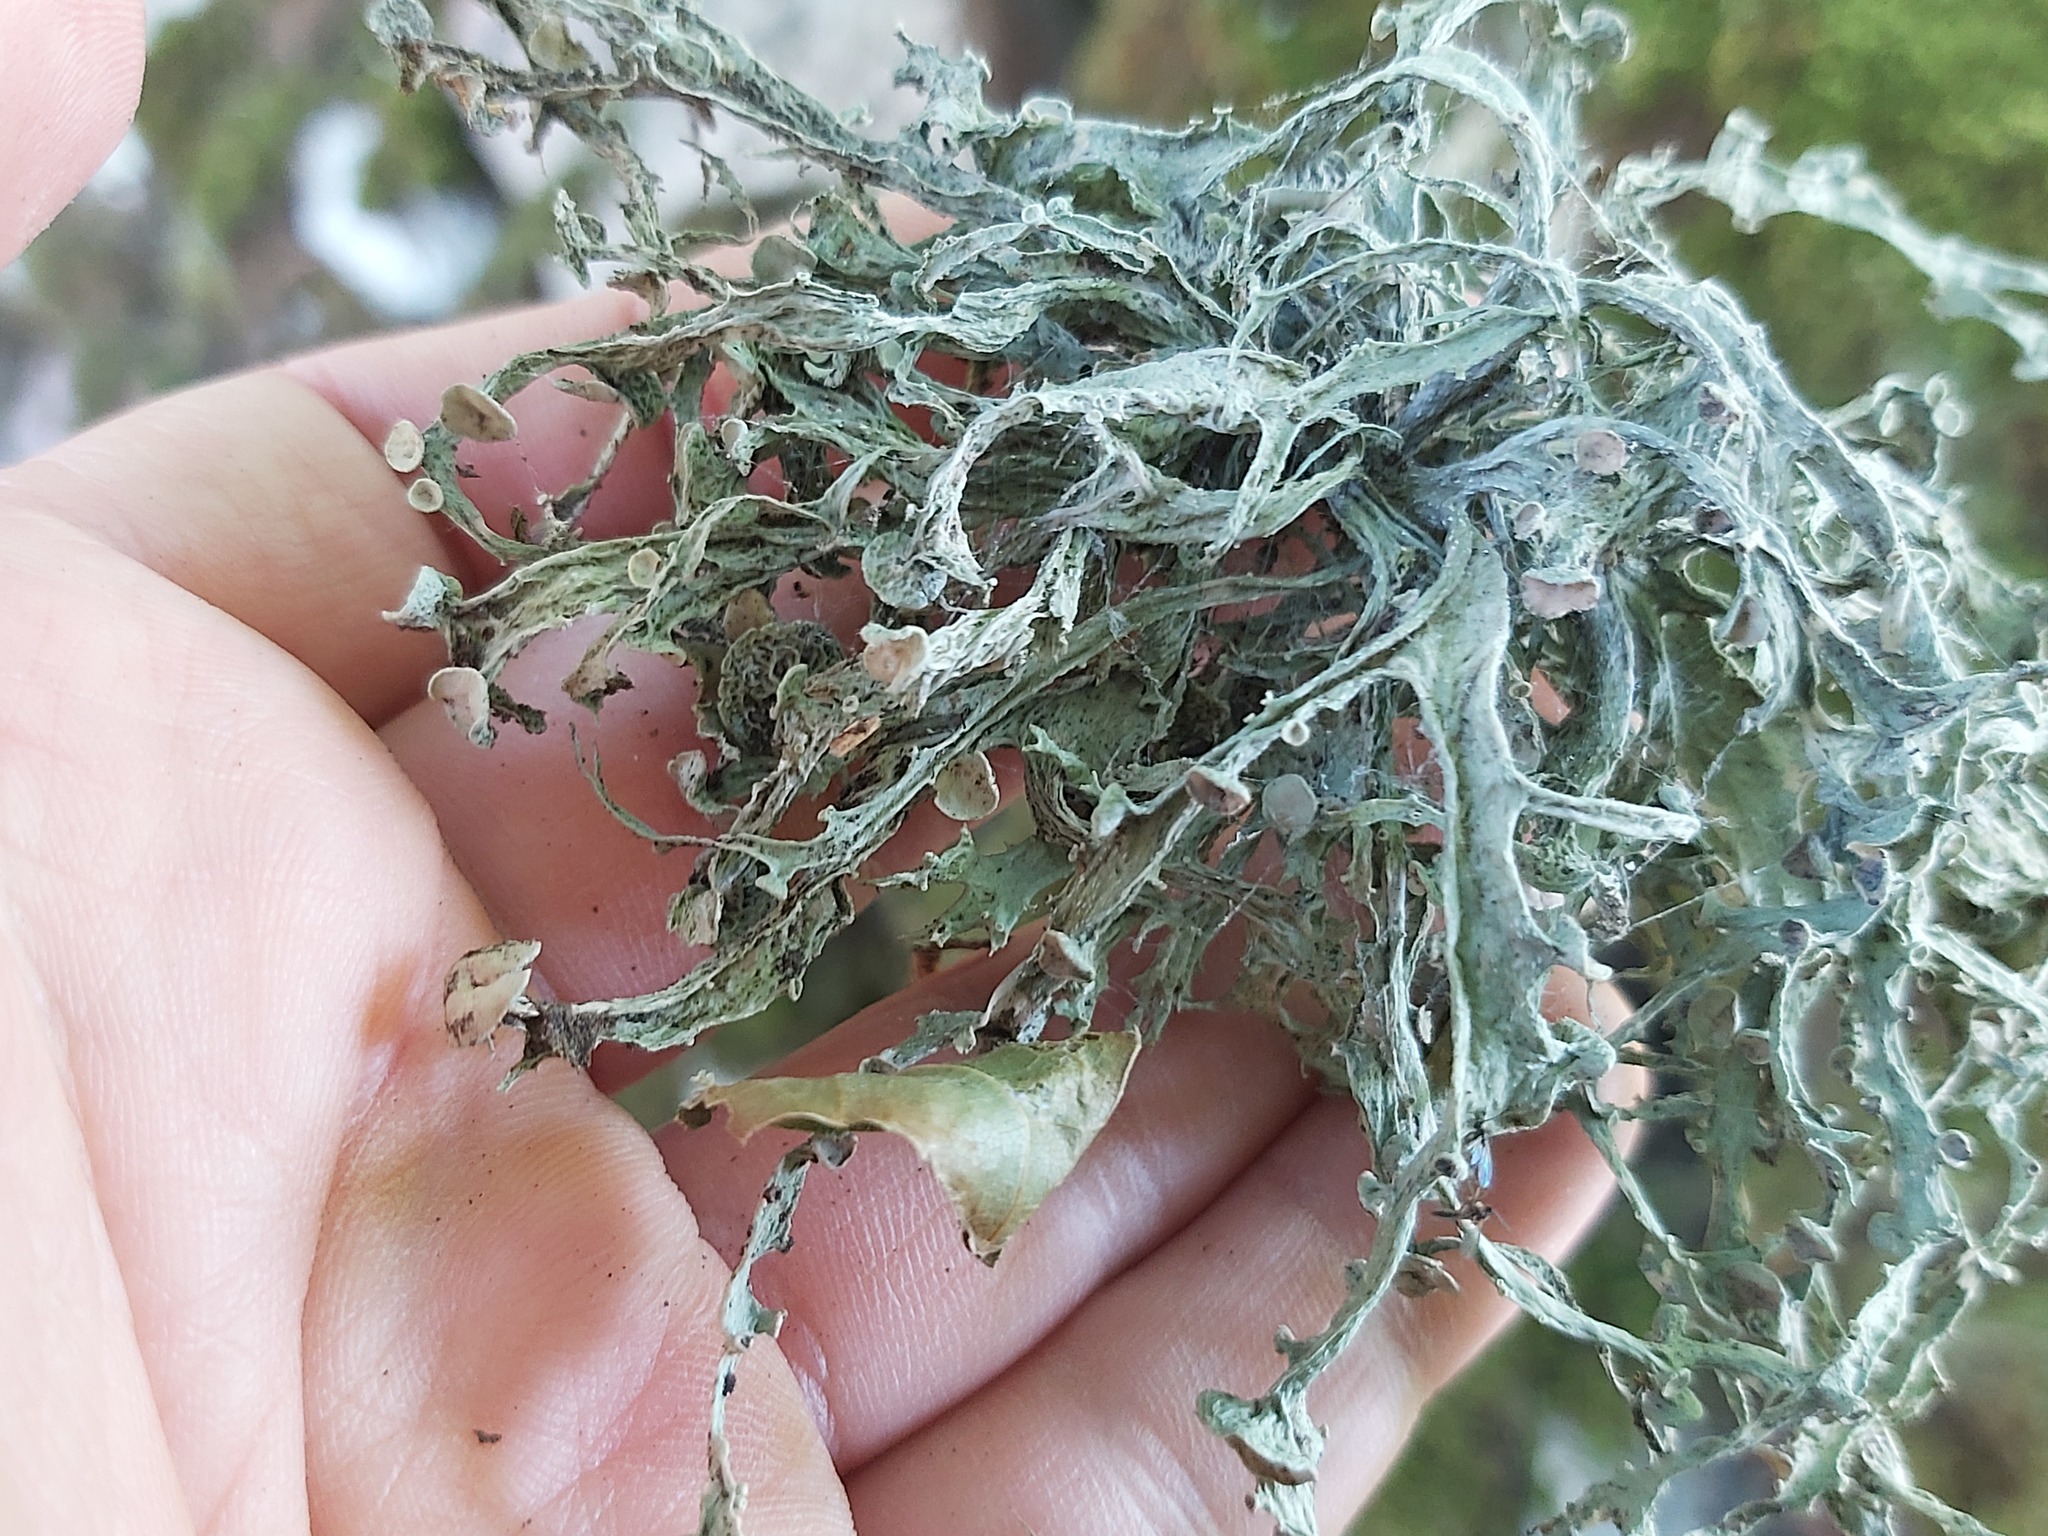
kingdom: Fungi
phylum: Ascomycota
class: Lecanoromycetes
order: Lecanorales
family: Ramalinaceae
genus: Ramalina
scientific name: Ramalina fraxinea
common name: Cartilage lichen
